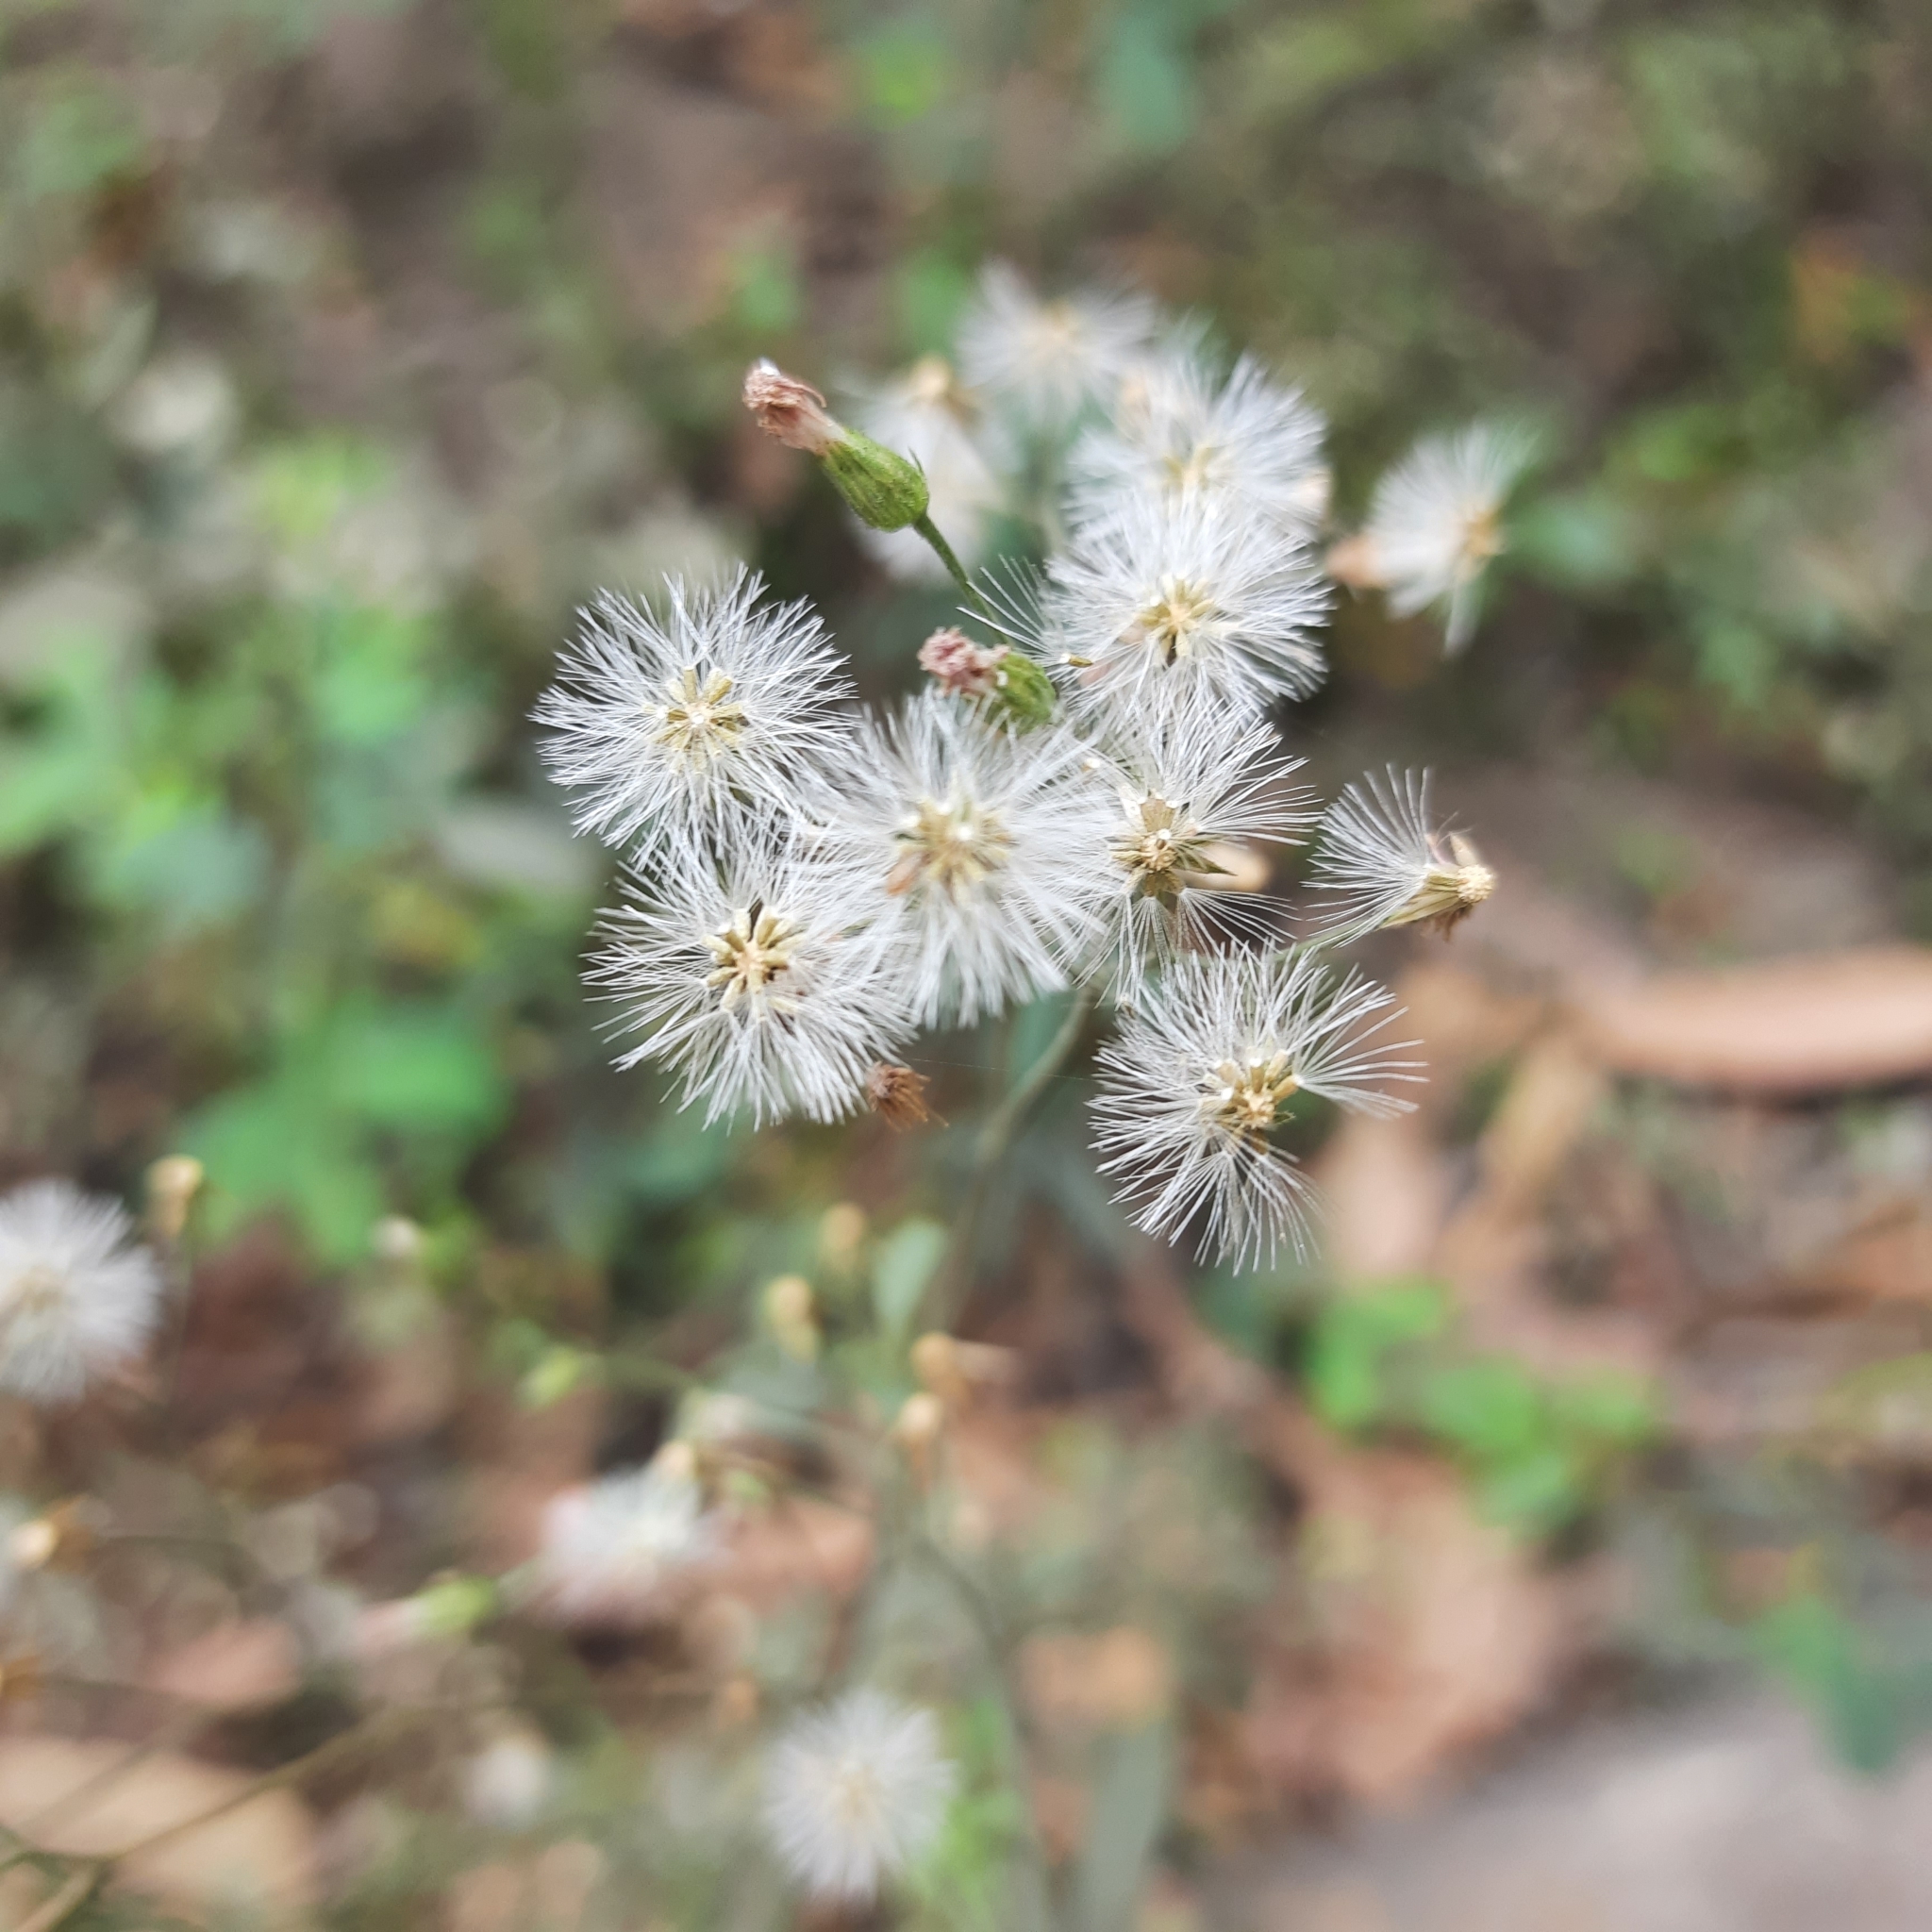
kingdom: Plantae
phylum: Tracheophyta
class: Magnoliopsida
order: Asterales
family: Asteraceae
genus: Cyanthillium
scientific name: Cyanthillium cinereum
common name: Little ironweed
